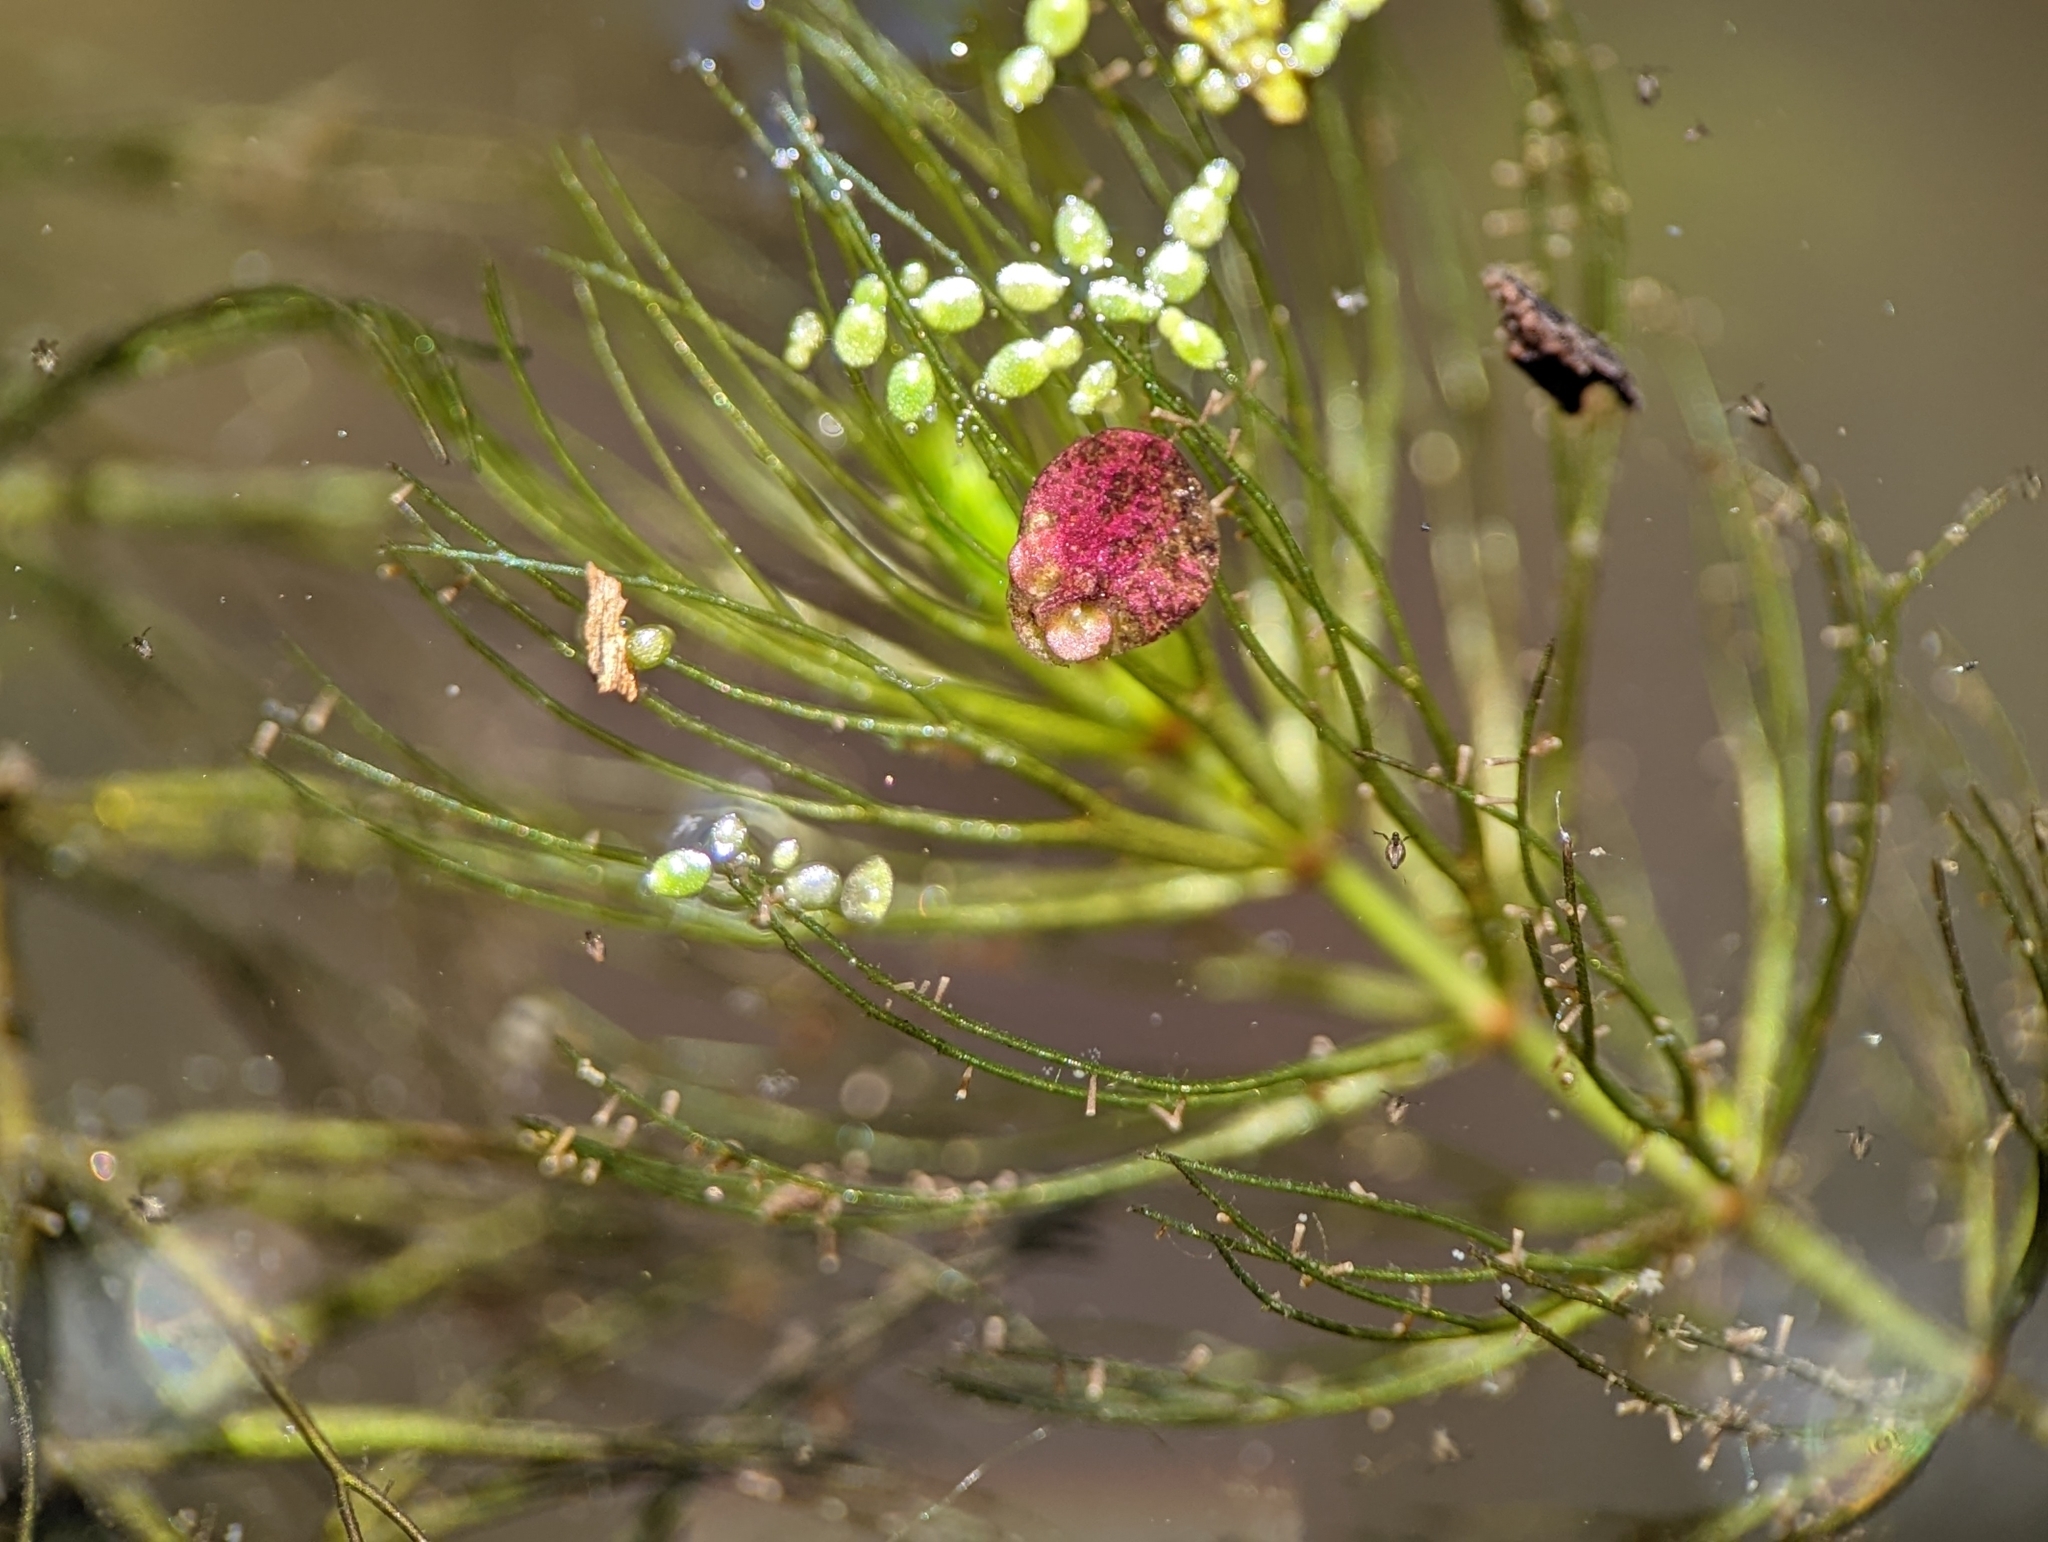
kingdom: Plantae
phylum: Tracheophyta
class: Magnoliopsida
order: Ceratophyllales
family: Ceratophyllaceae
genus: Ceratophyllum
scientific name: Ceratophyllum echinatum
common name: Prickly coontail
